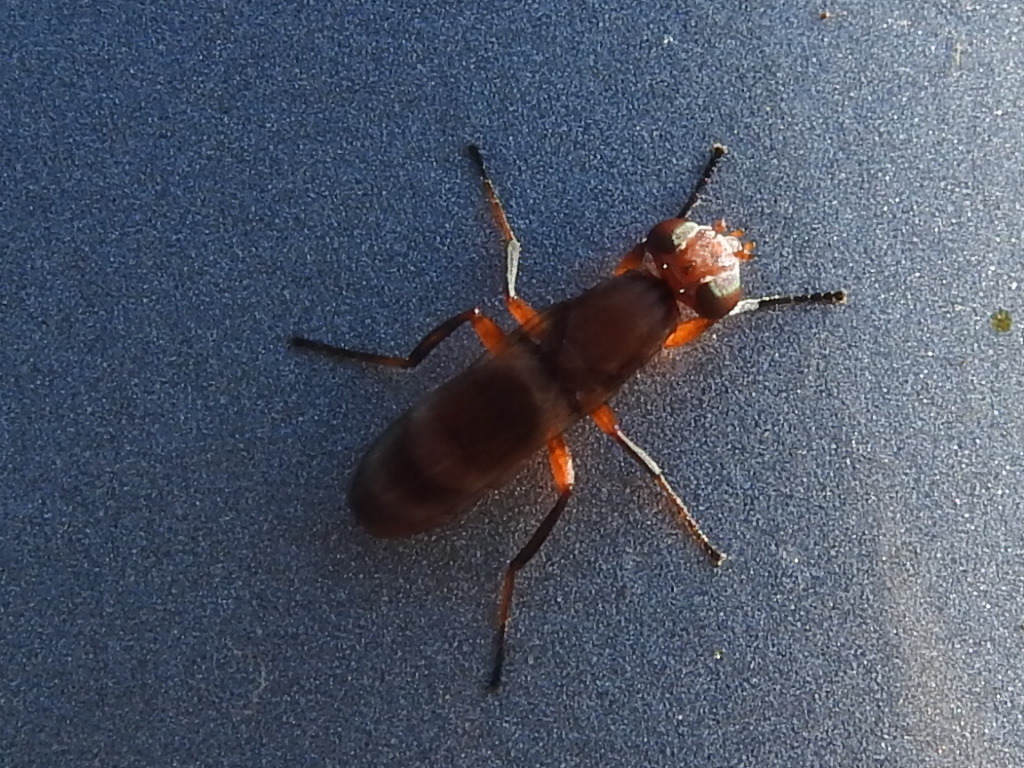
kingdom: Animalia
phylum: Arthropoda
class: Insecta
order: Diptera
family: Ulidiidae
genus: Zacompsia
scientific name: Zacompsia fulva
